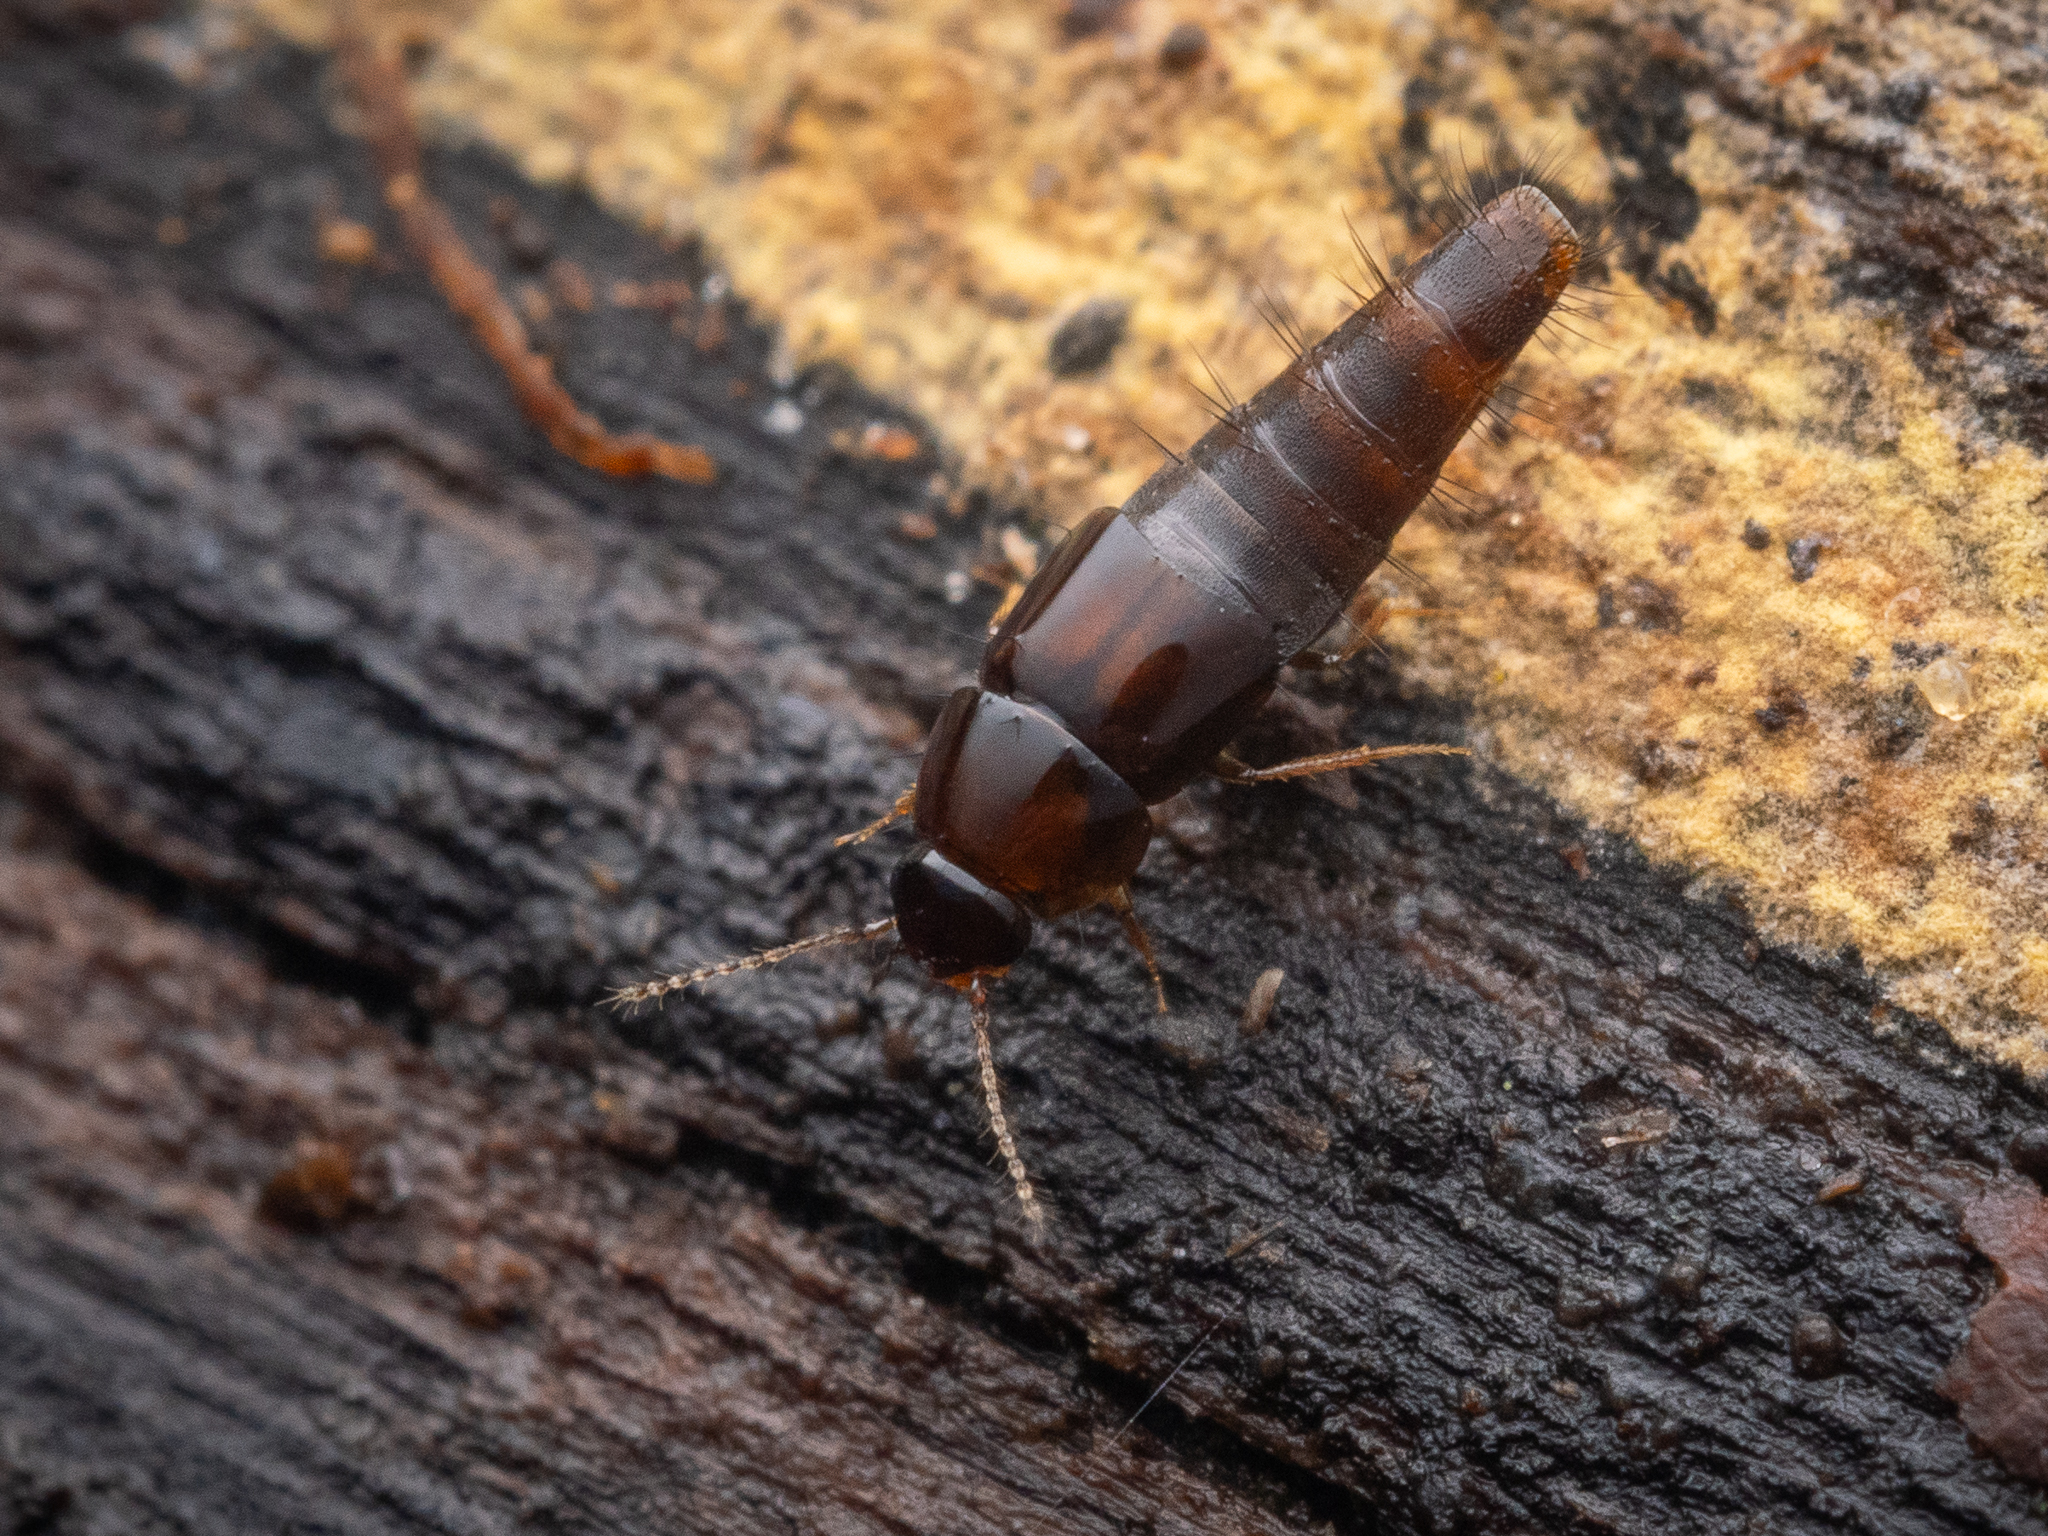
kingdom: Animalia
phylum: Arthropoda
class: Insecta
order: Coleoptera
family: Staphylinidae
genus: Habrocerus
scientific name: Habrocerus capillaricornis
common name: Staph beetle
